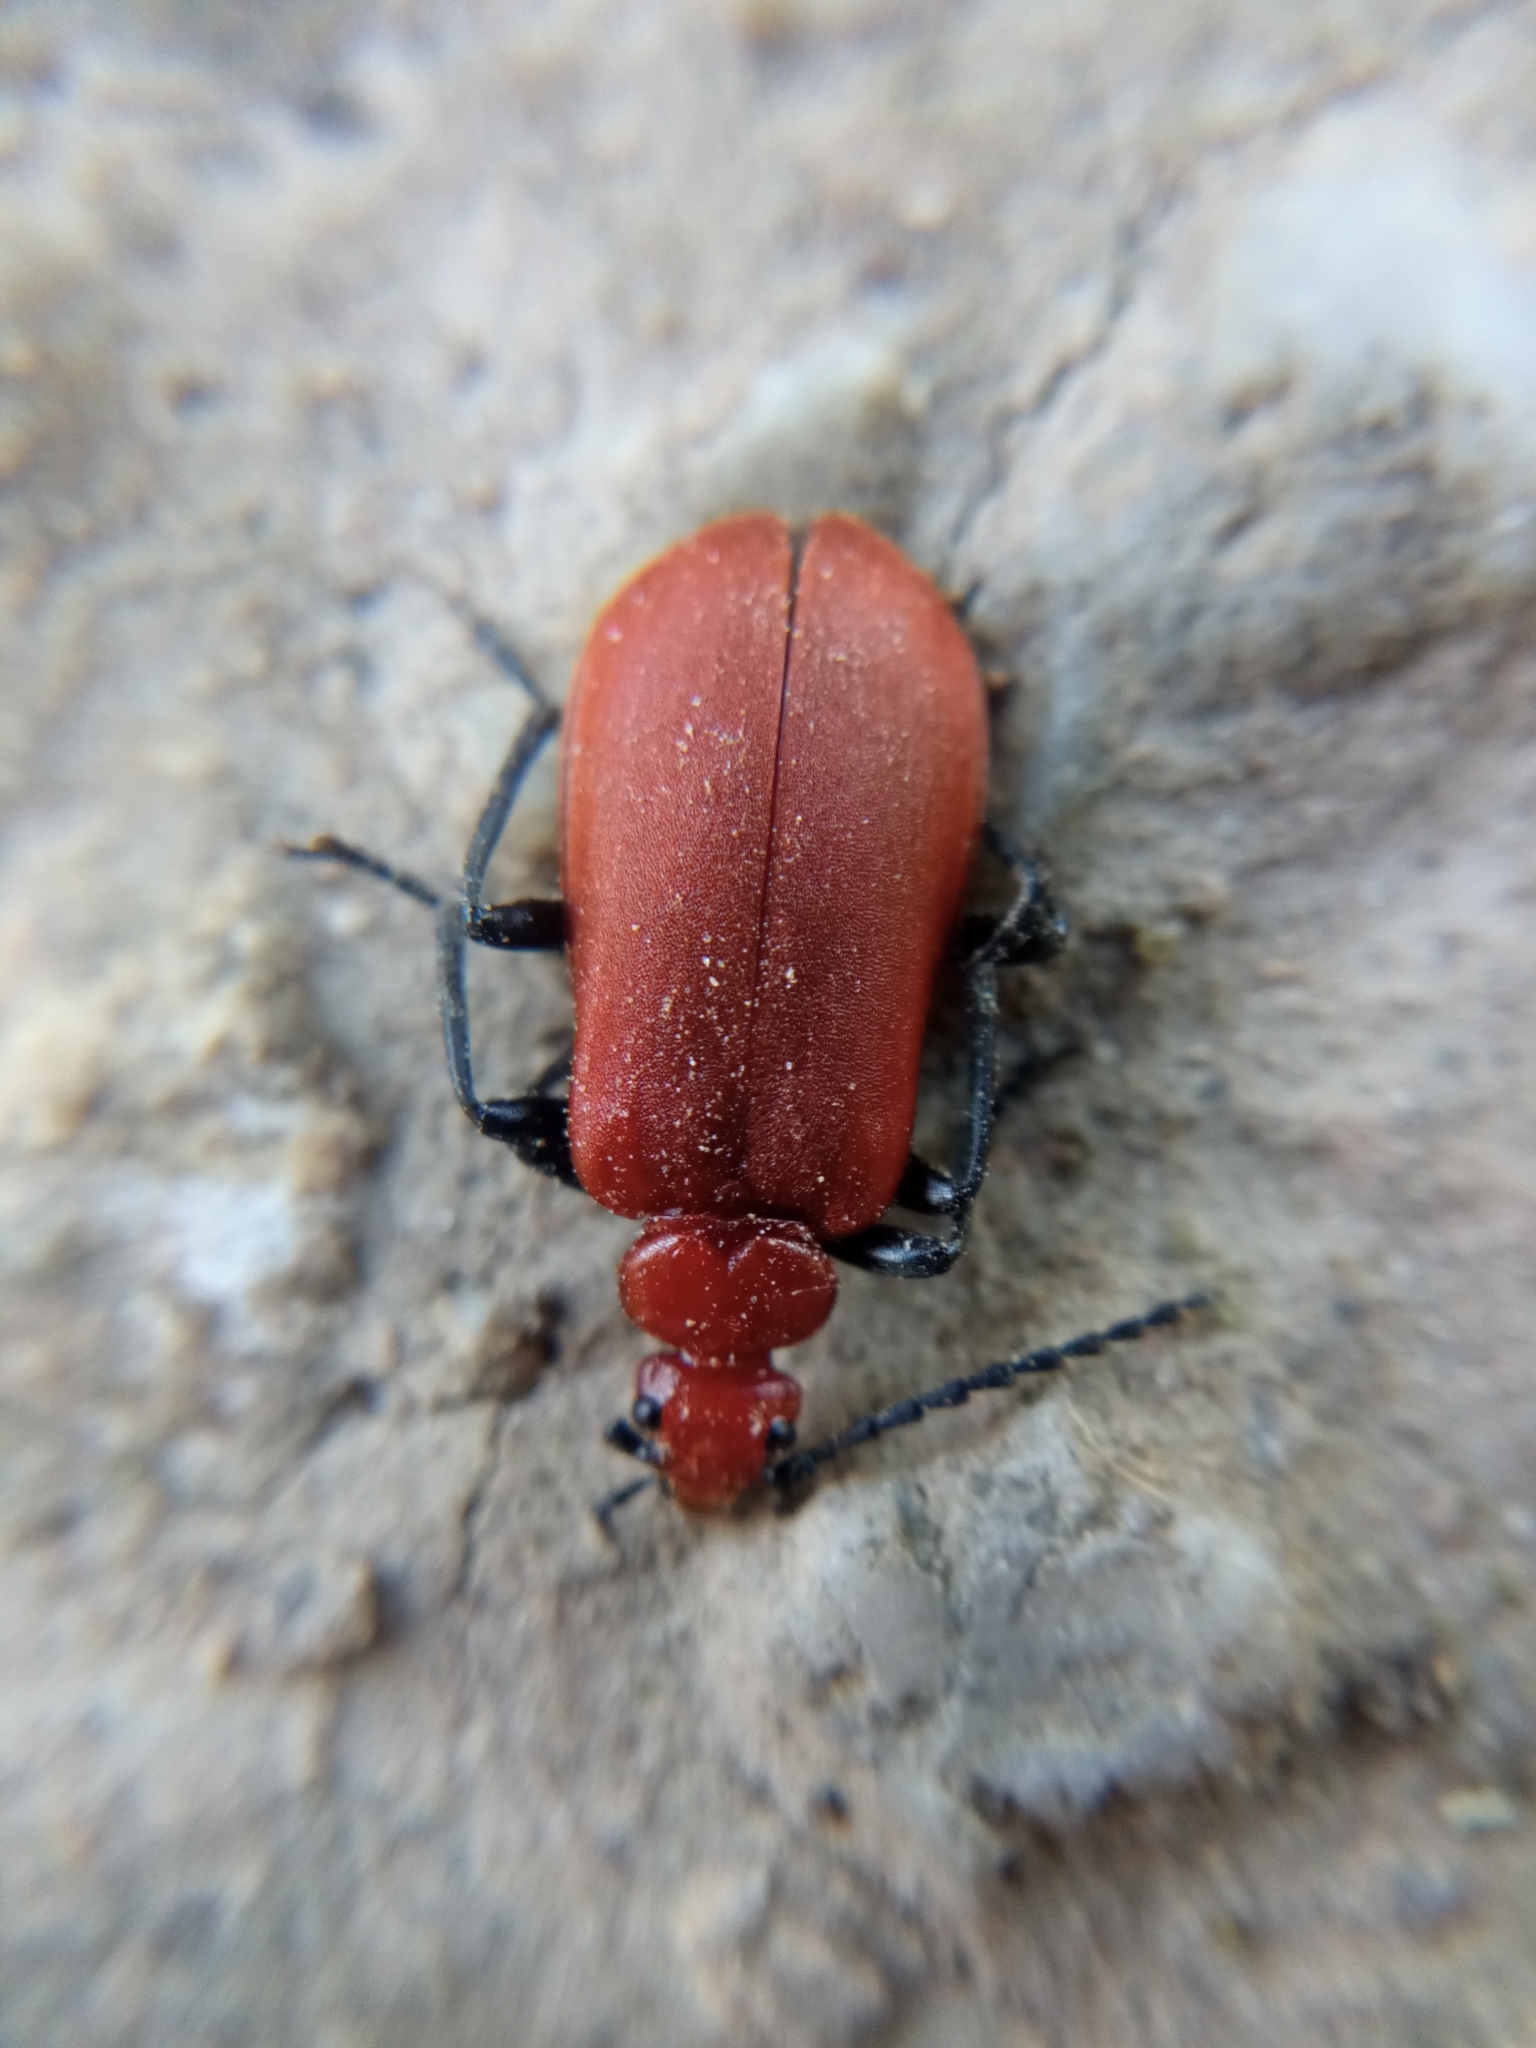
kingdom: Animalia
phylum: Arthropoda
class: Insecta
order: Coleoptera
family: Pyrochroidae
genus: Pyrochroa
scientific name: Pyrochroa serraticornis
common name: Red-headed cardinal beetle
